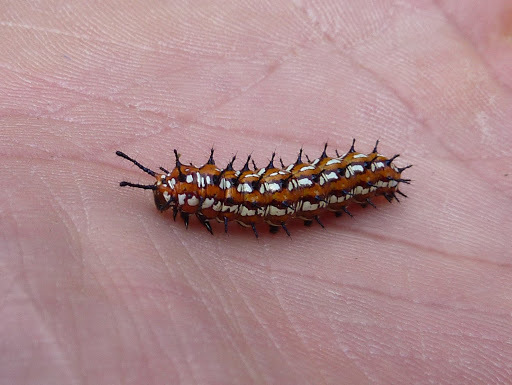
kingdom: Animalia
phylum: Arthropoda
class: Insecta
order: Lepidoptera
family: Nymphalidae
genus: Euptoieta
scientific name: Euptoieta claudia
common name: Variegated fritillary
